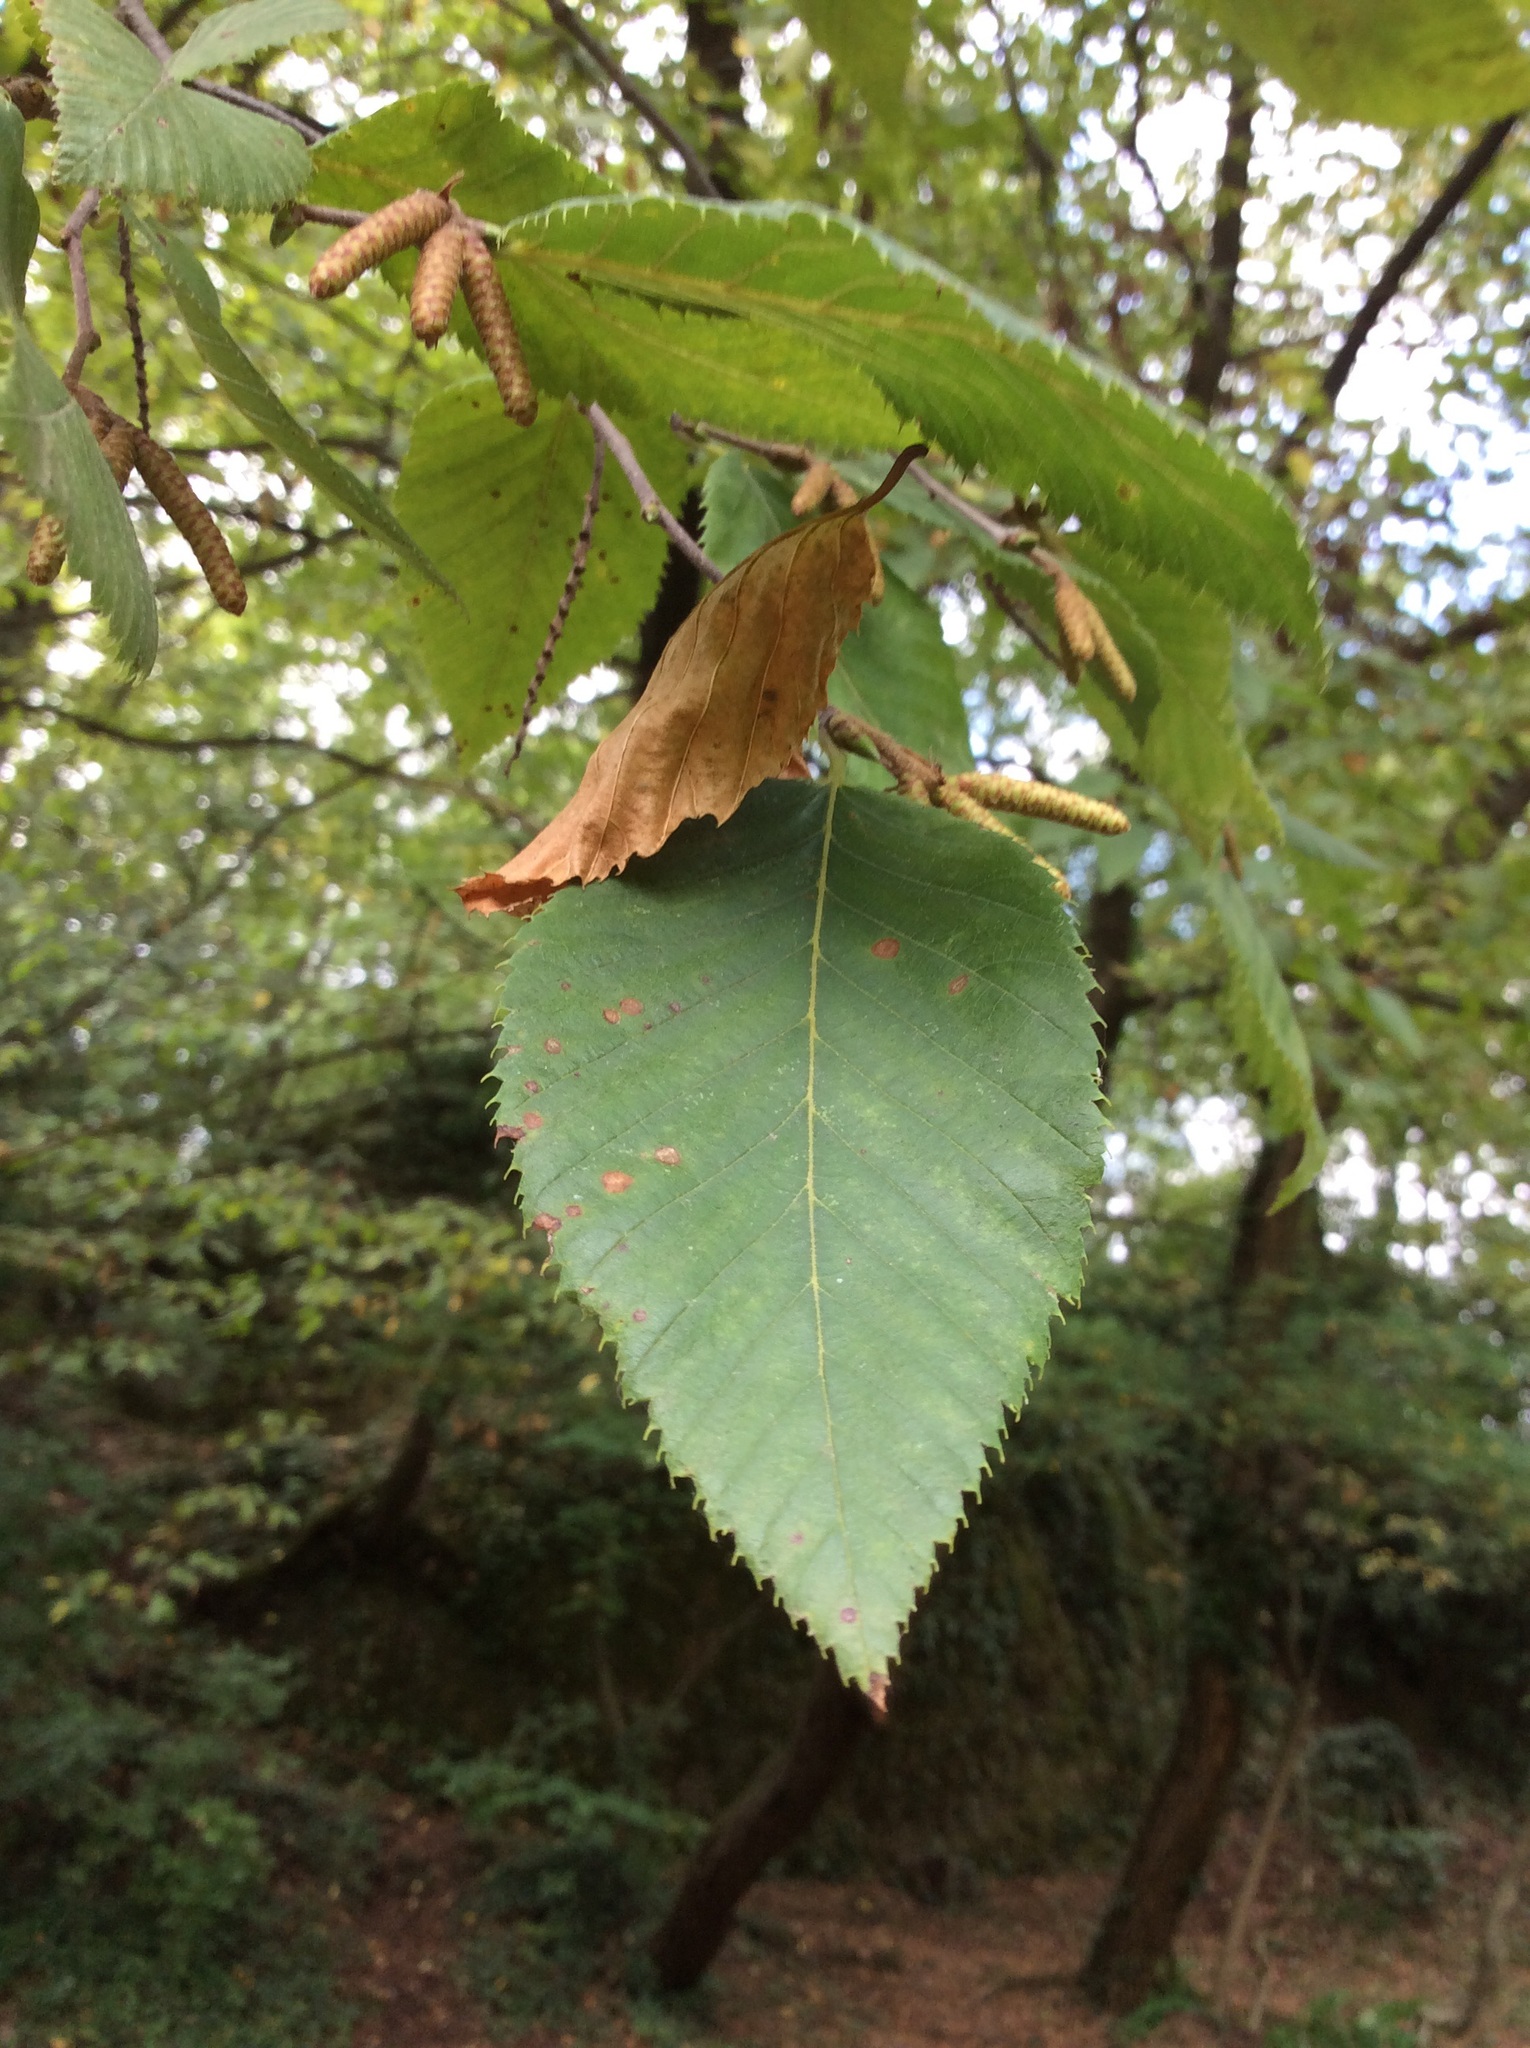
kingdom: Plantae
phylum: Tracheophyta
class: Magnoliopsida
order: Fagales
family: Betulaceae
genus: Ostrya
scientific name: Ostrya carpinifolia
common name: European hop-hornbeam
